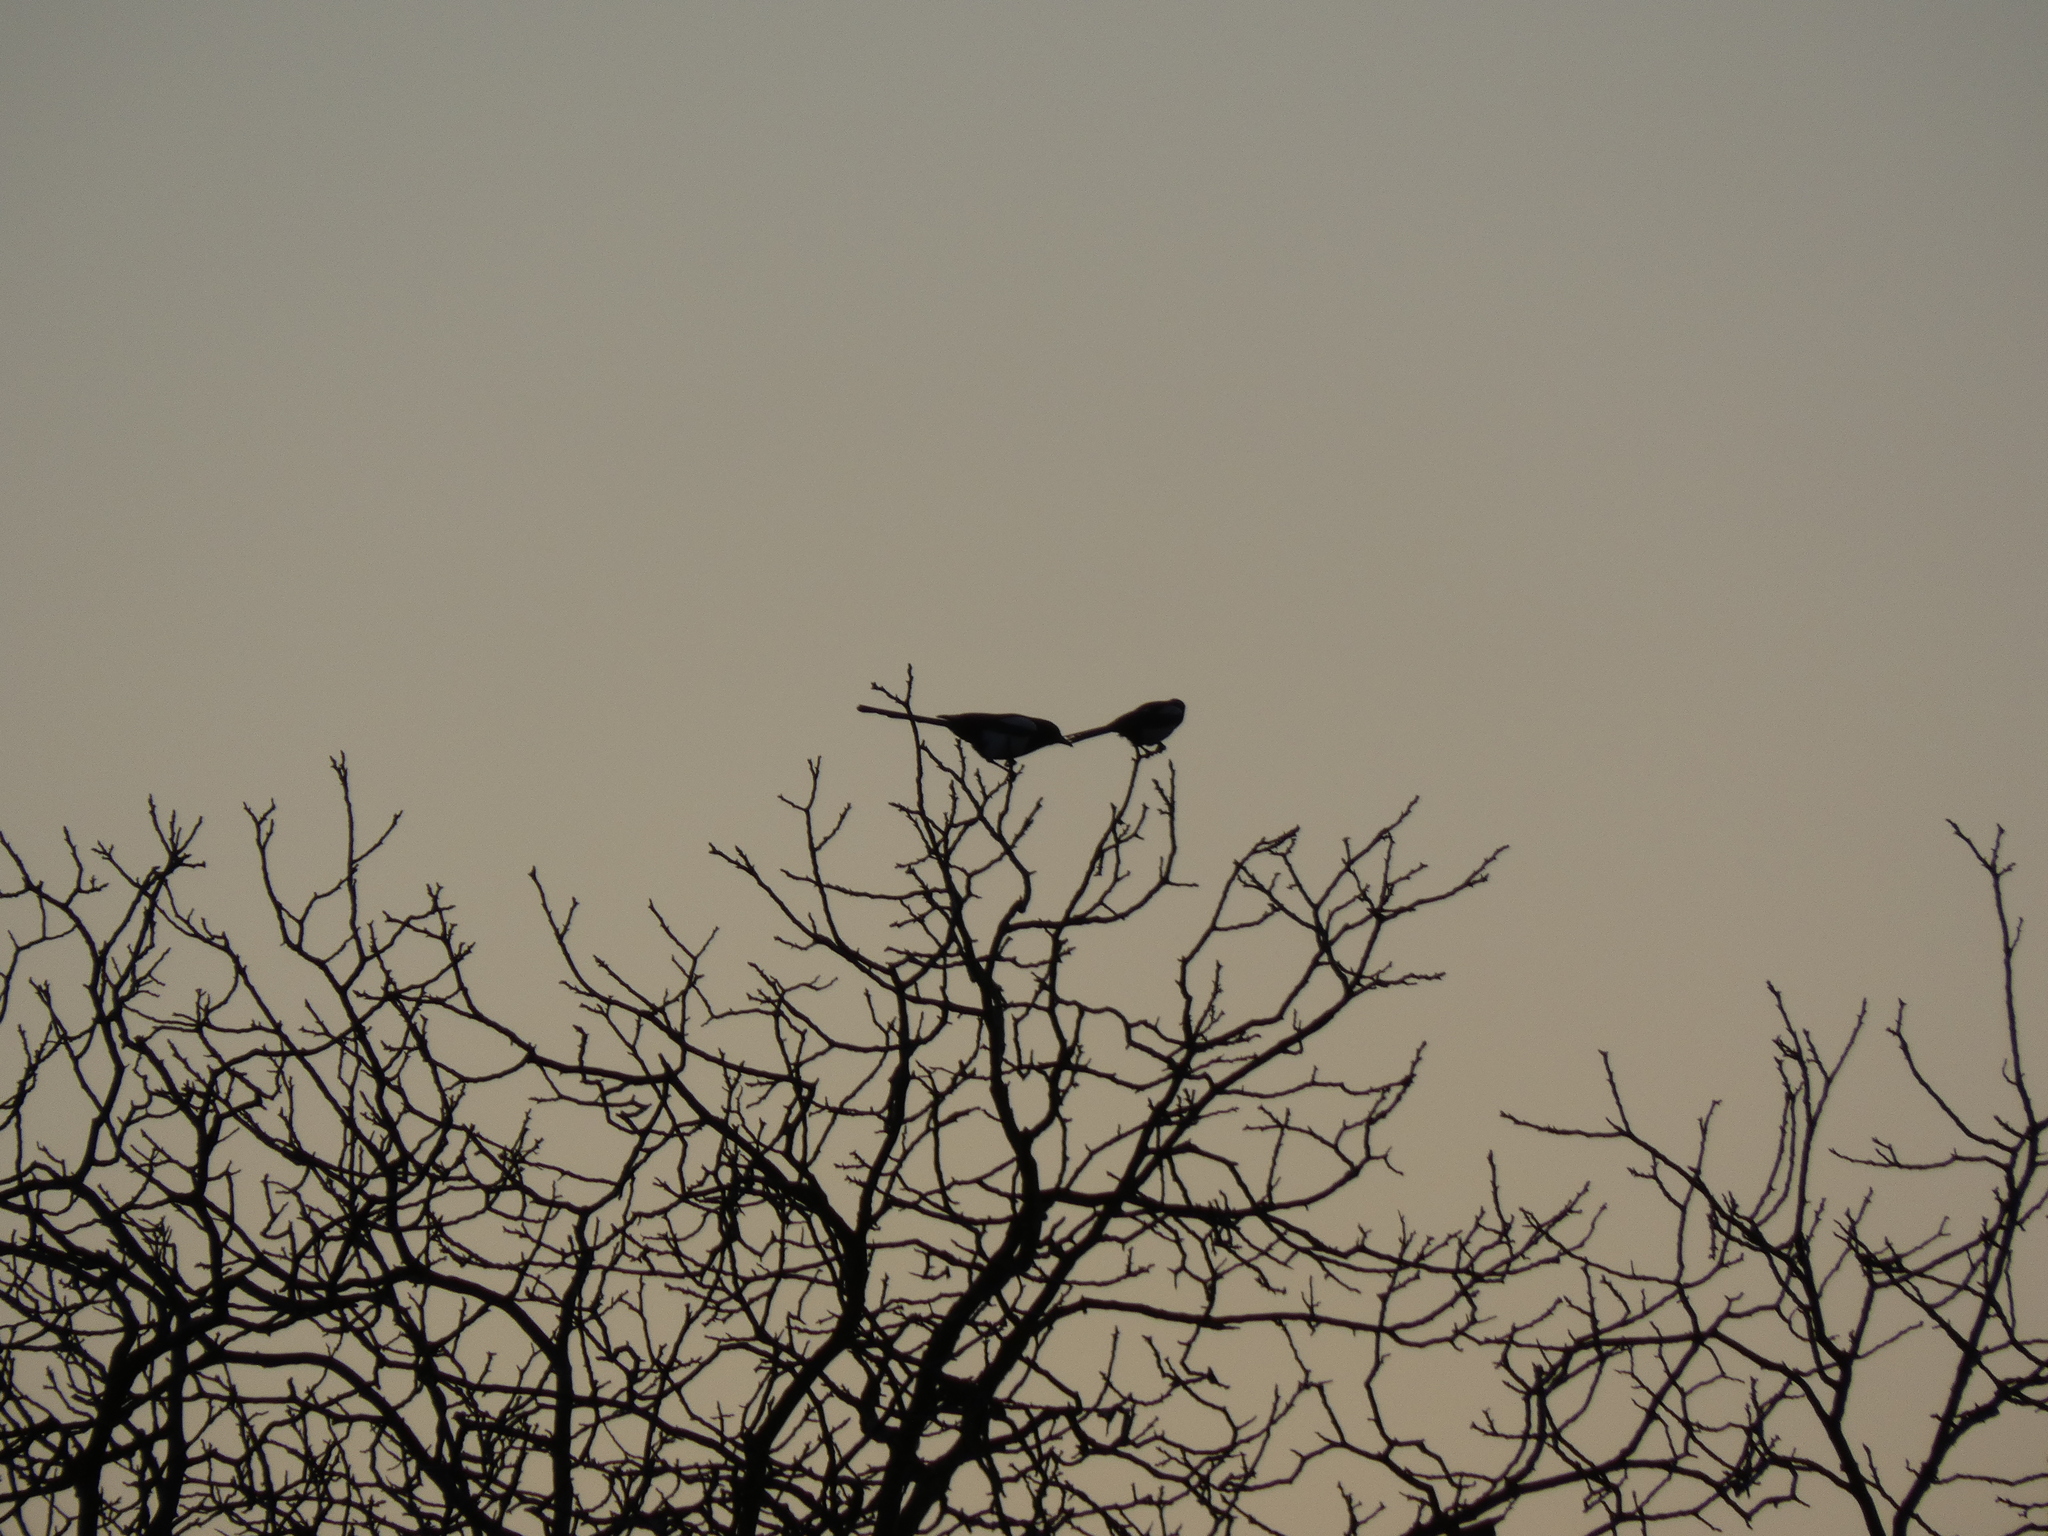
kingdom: Animalia
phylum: Chordata
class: Aves
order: Passeriformes
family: Corvidae
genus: Pica
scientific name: Pica pica
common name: Eurasian magpie
